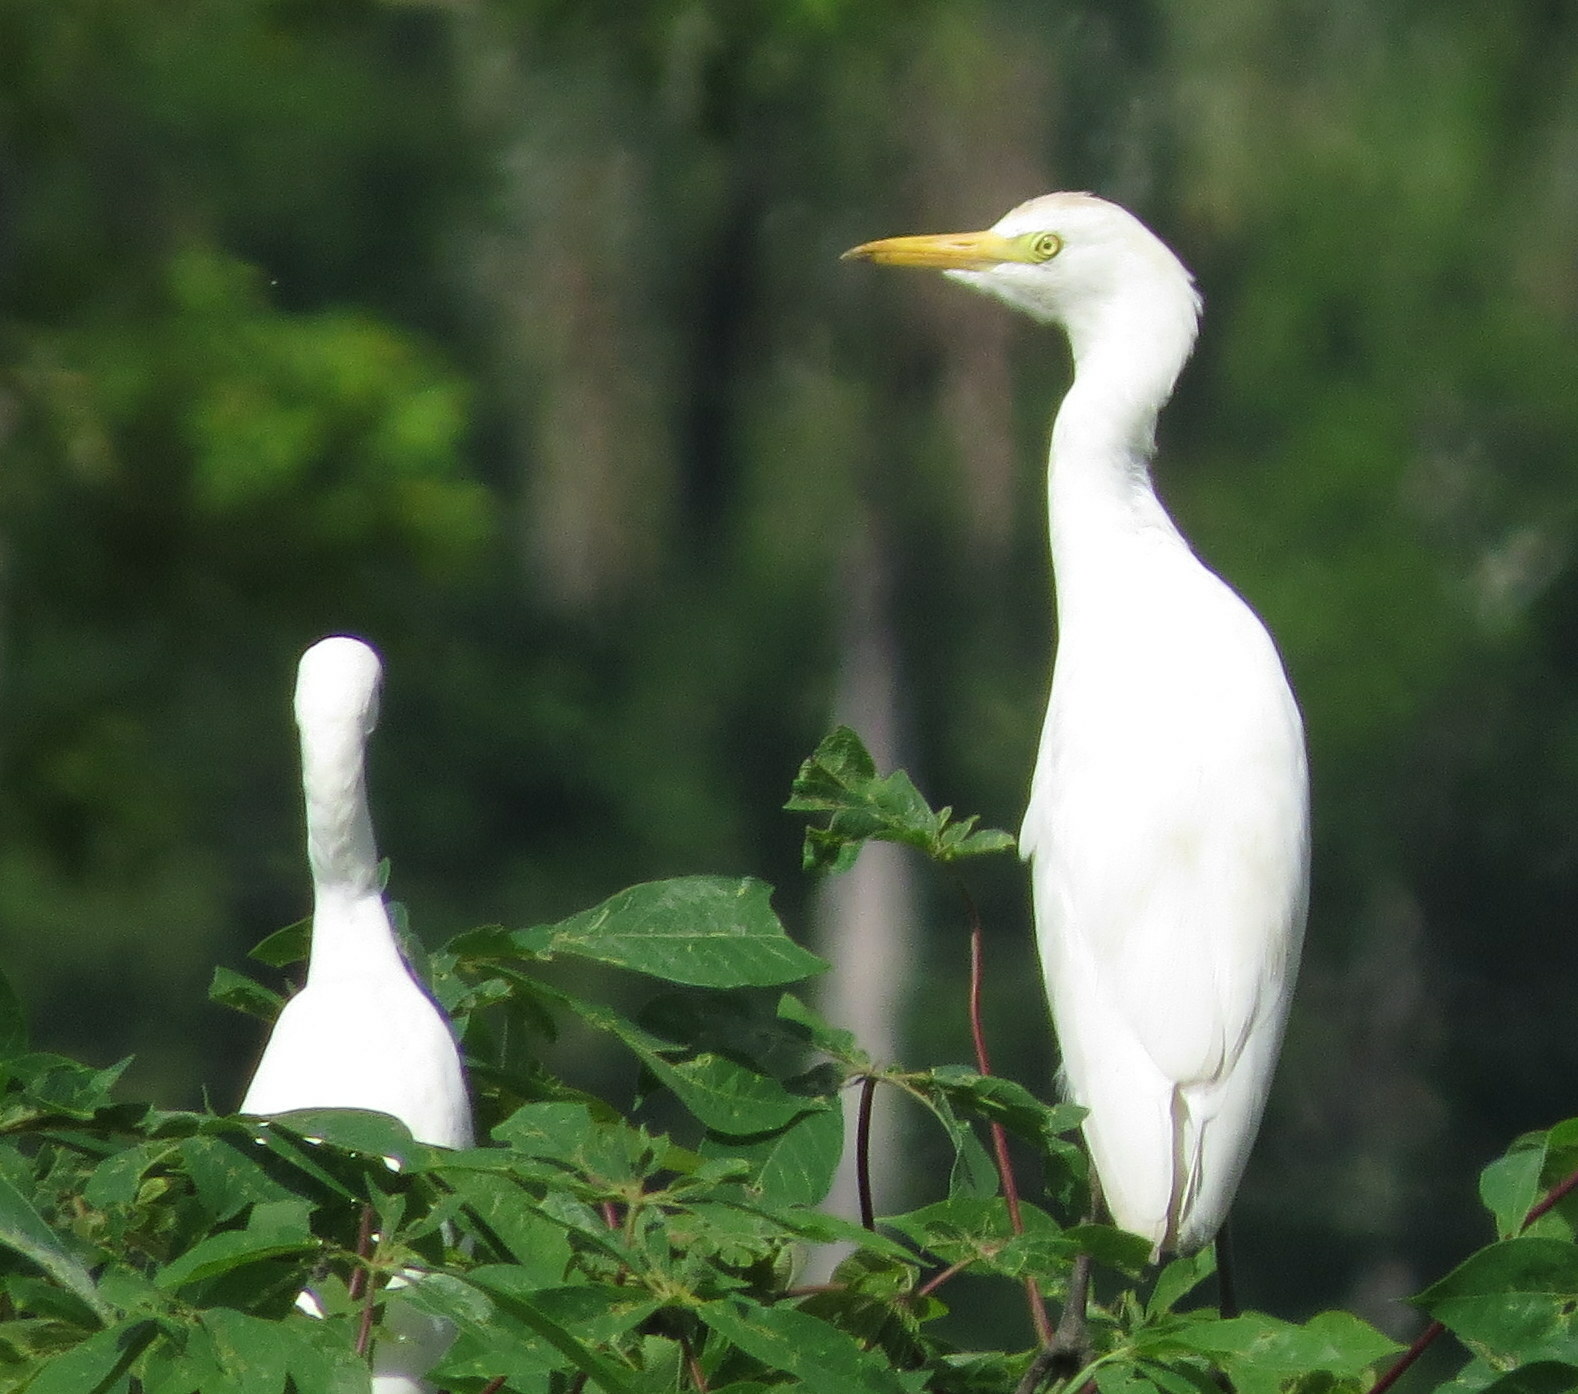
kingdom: Animalia
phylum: Chordata
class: Aves
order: Pelecaniformes
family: Ardeidae
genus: Bubulcus
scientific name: Bubulcus ibis
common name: Cattle egret
